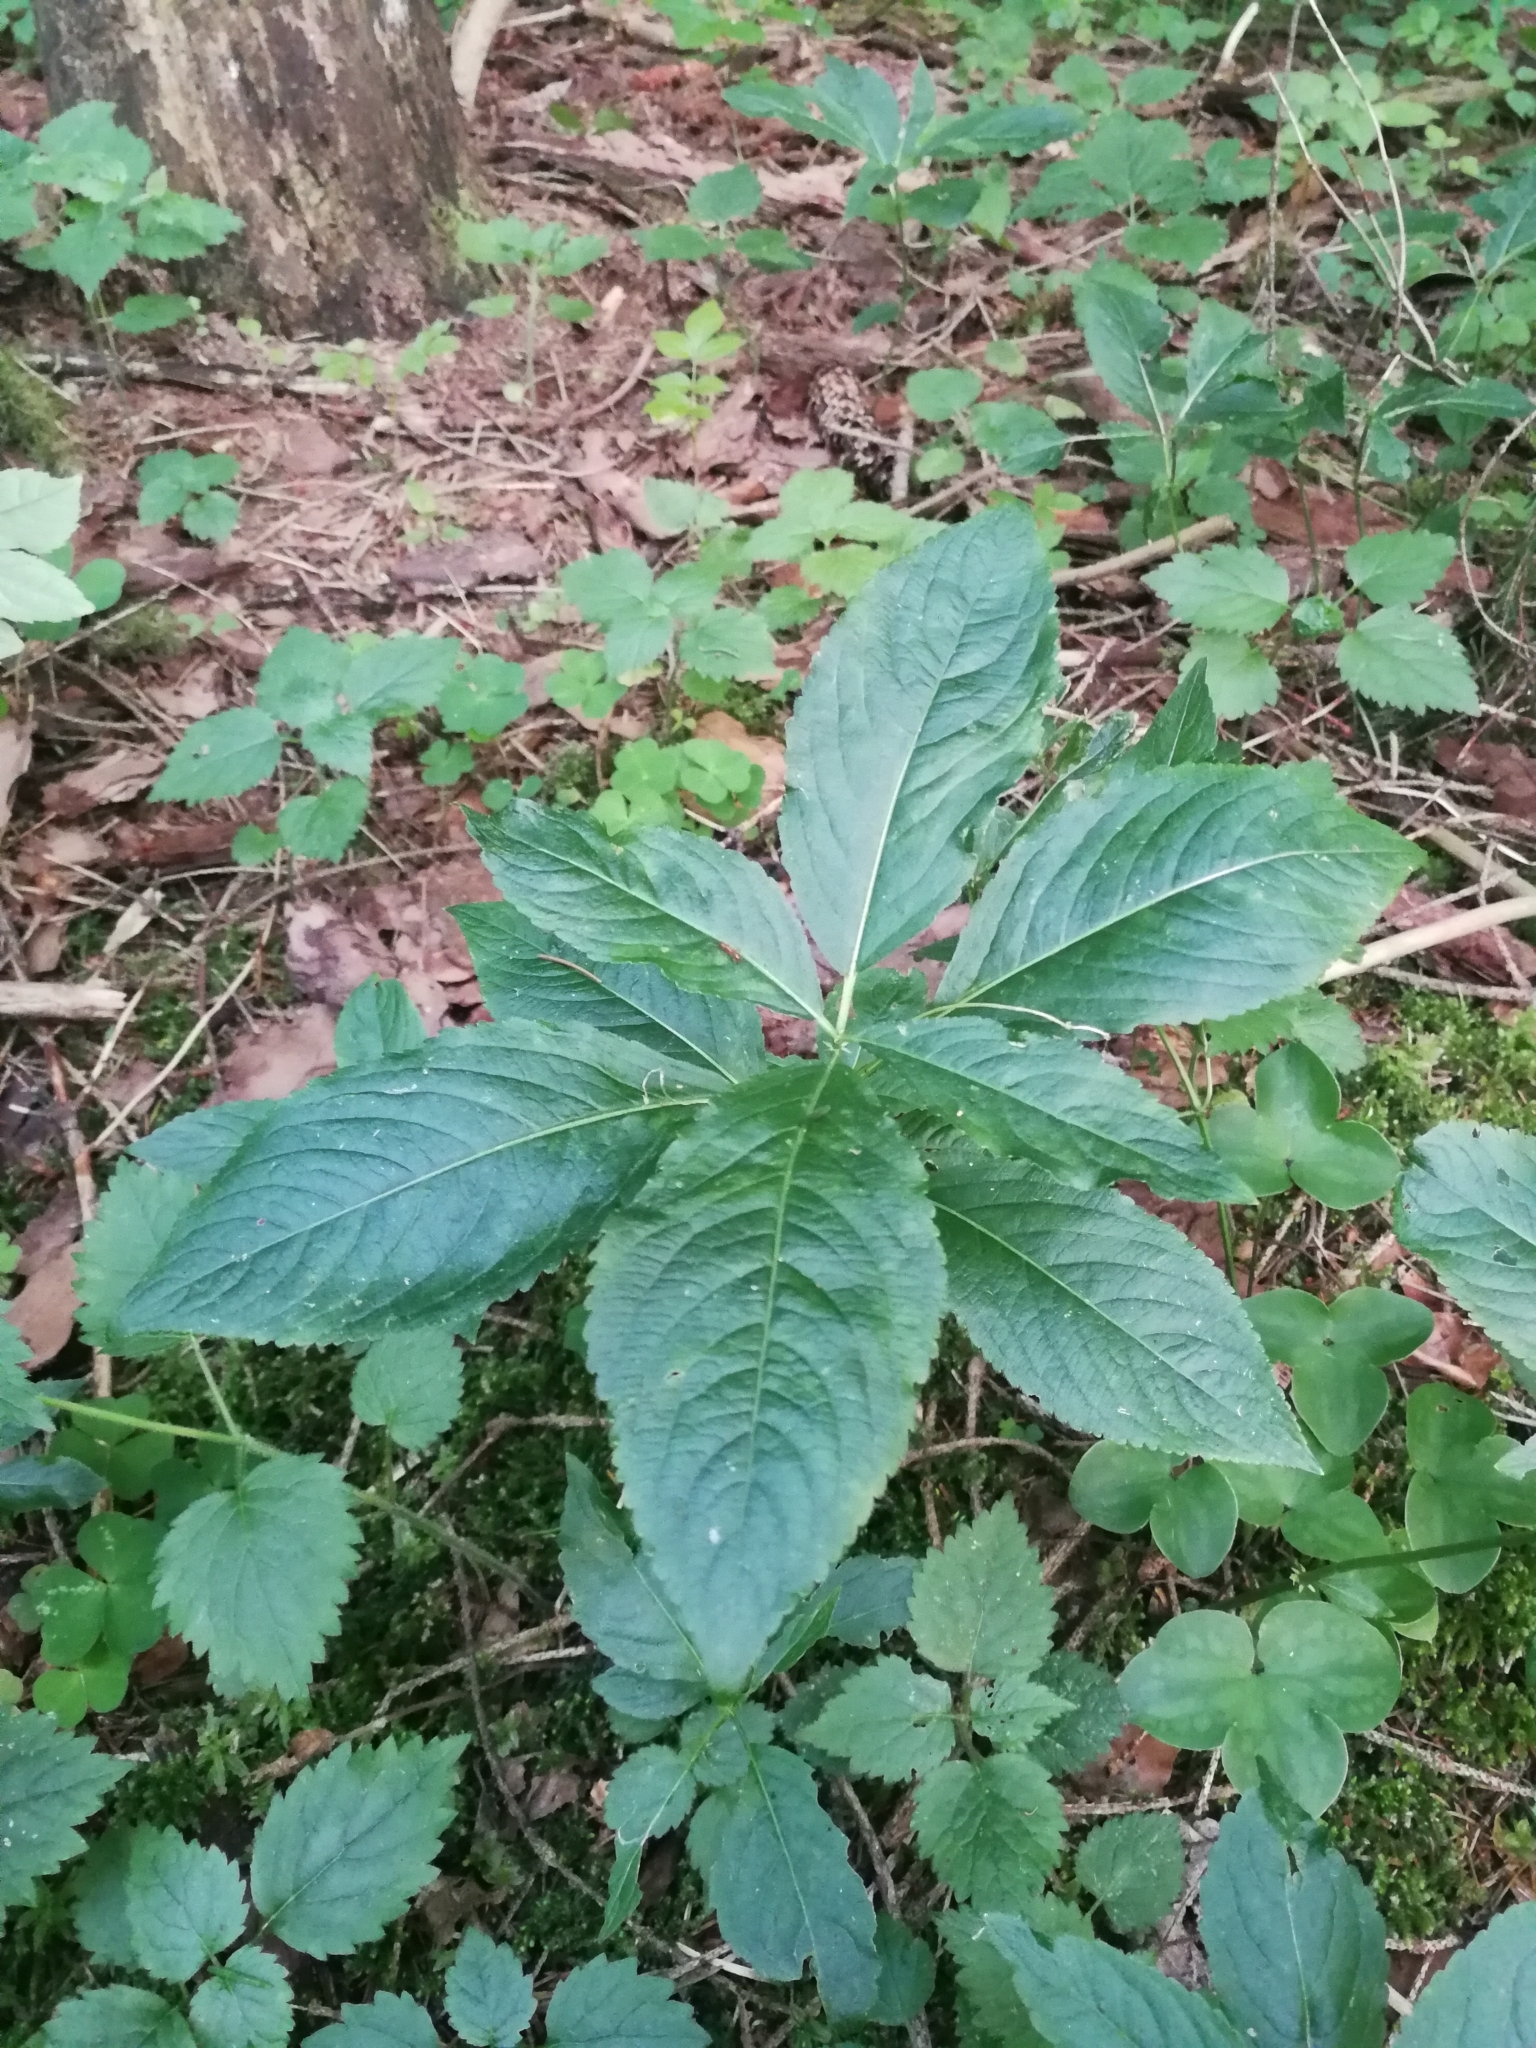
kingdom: Plantae
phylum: Tracheophyta
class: Magnoliopsida
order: Malpighiales
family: Euphorbiaceae
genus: Mercurialis
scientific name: Mercurialis perennis
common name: Dog mercury
